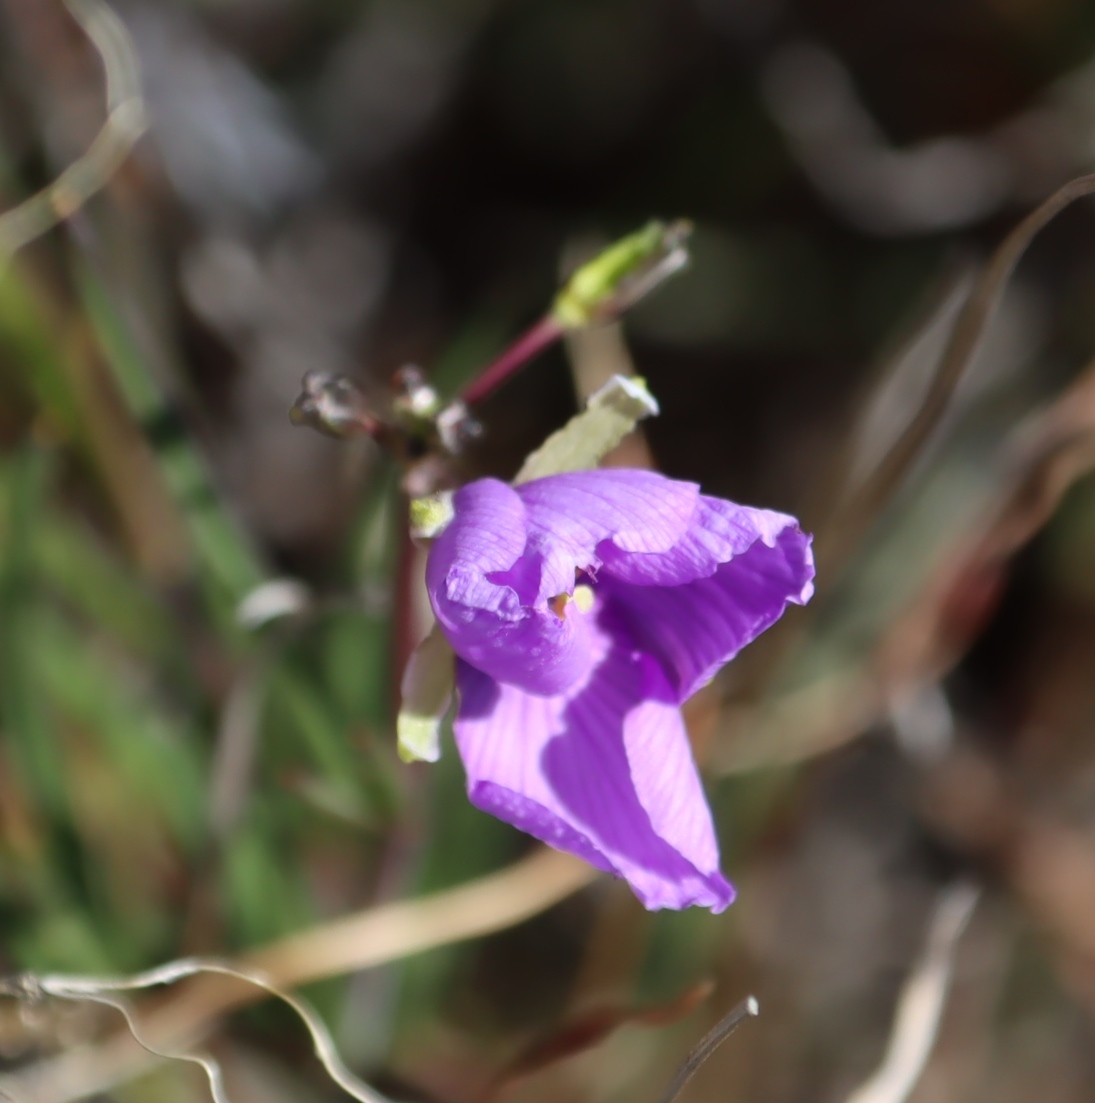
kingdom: Plantae
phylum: Tracheophyta
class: Magnoliopsida
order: Brassicales
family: Brassicaceae
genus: Heliophila
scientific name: Heliophila subulata
